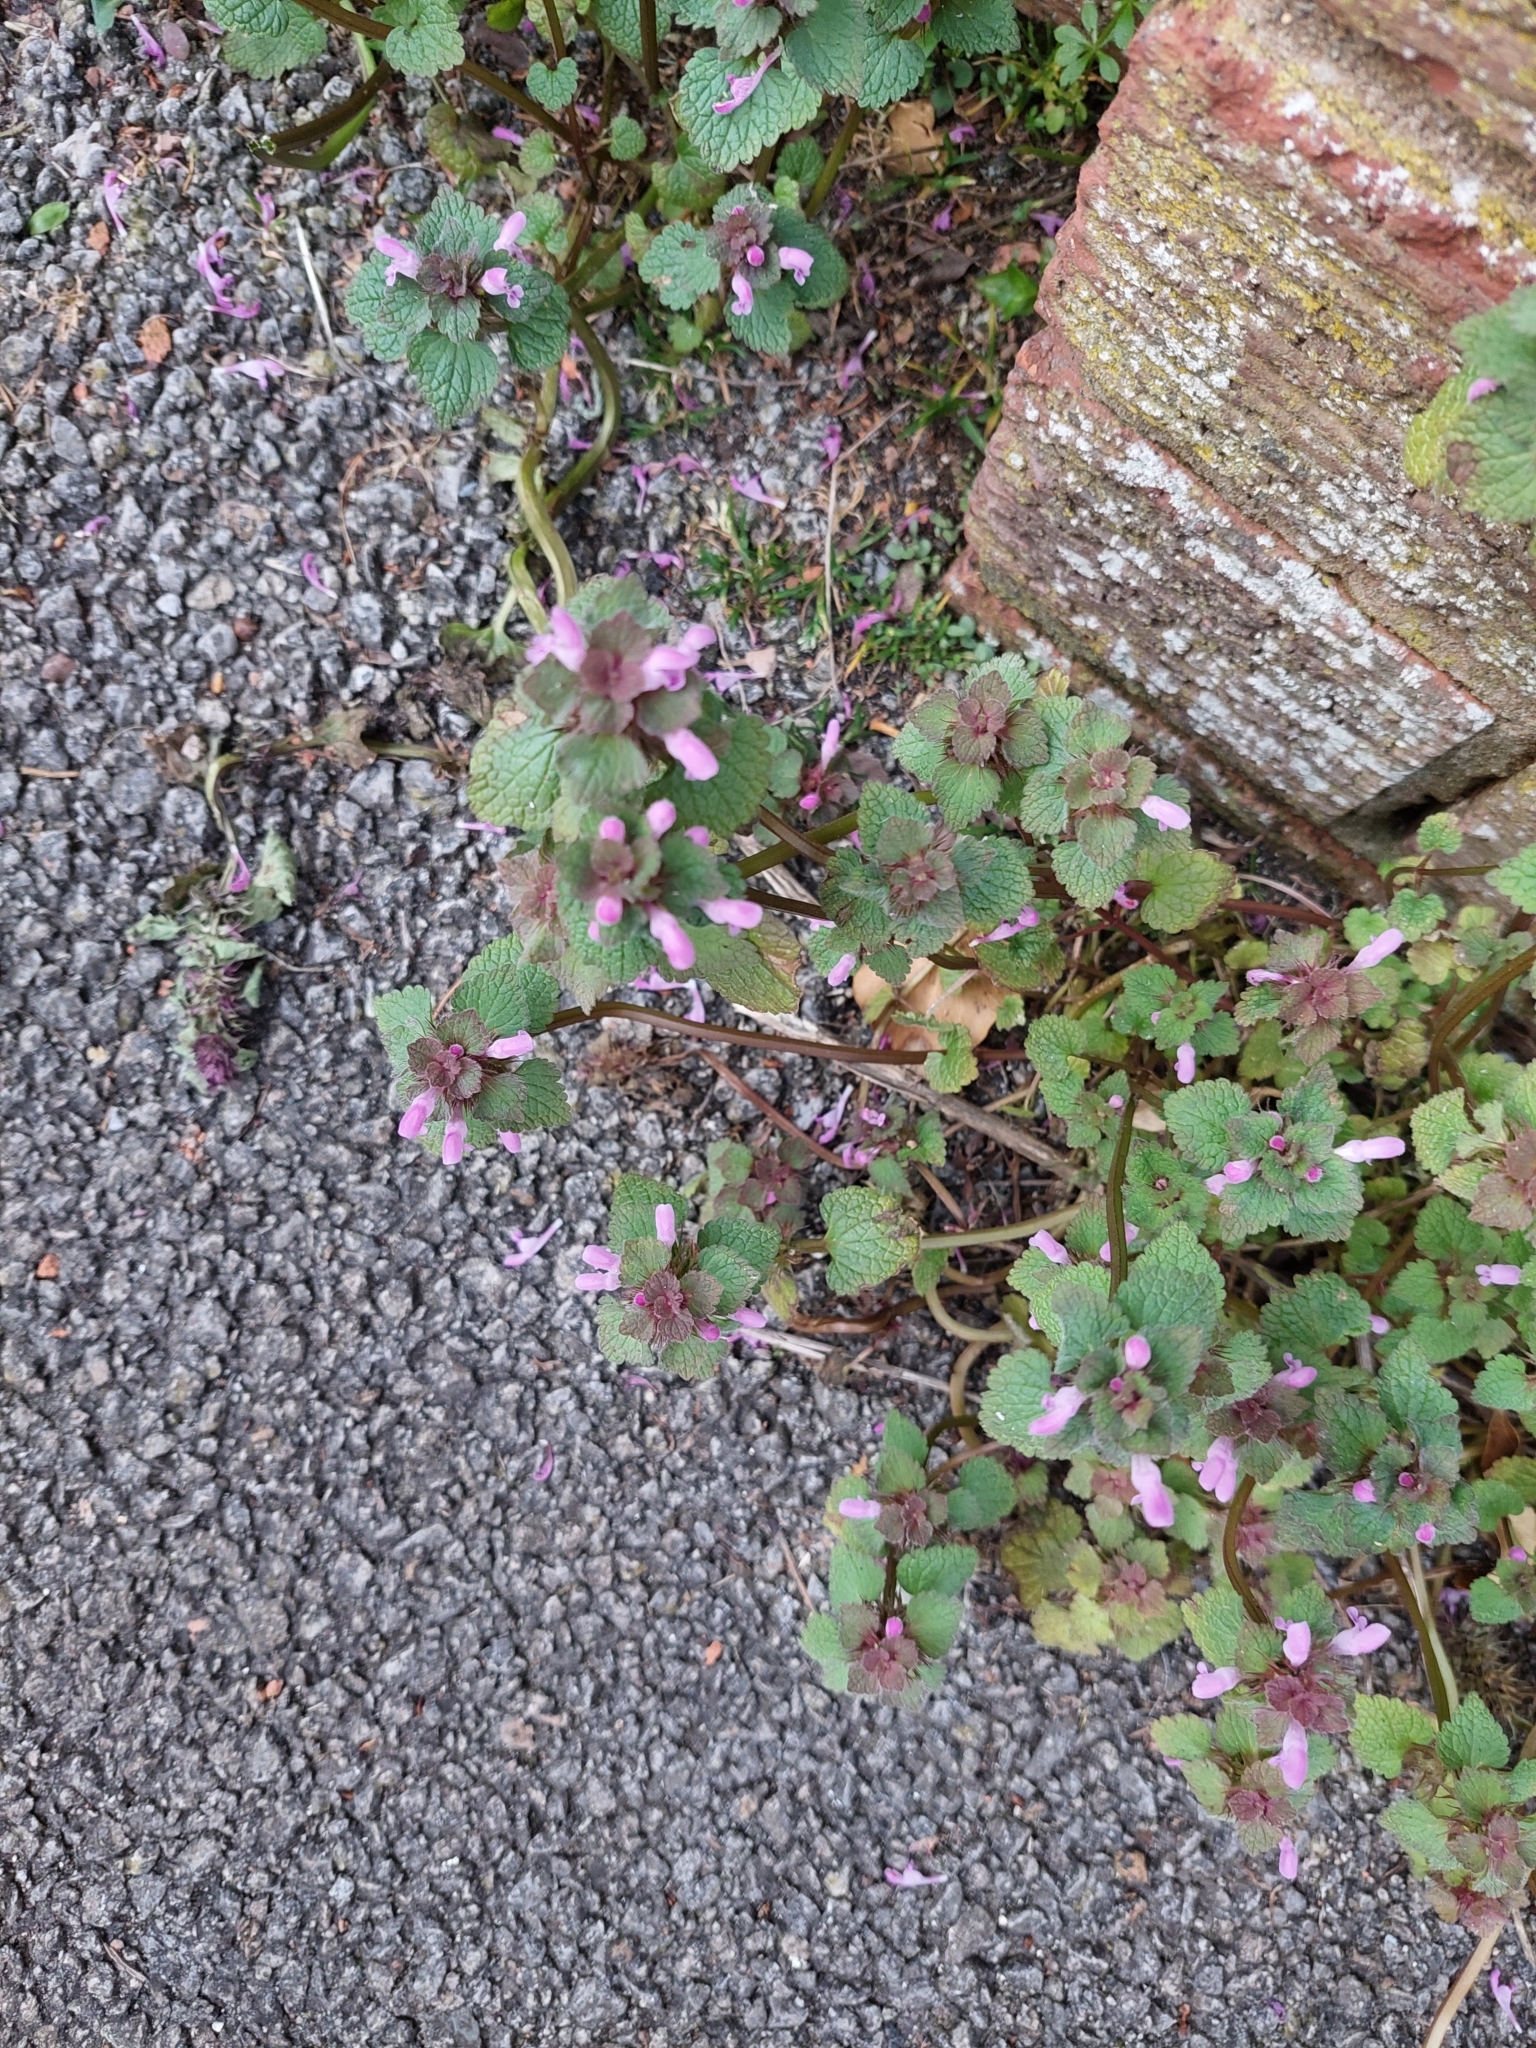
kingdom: Plantae
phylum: Tracheophyta
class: Magnoliopsida
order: Lamiales
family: Lamiaceae
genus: Lamium
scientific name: Lamium purpureum
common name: Red dead-nettle
